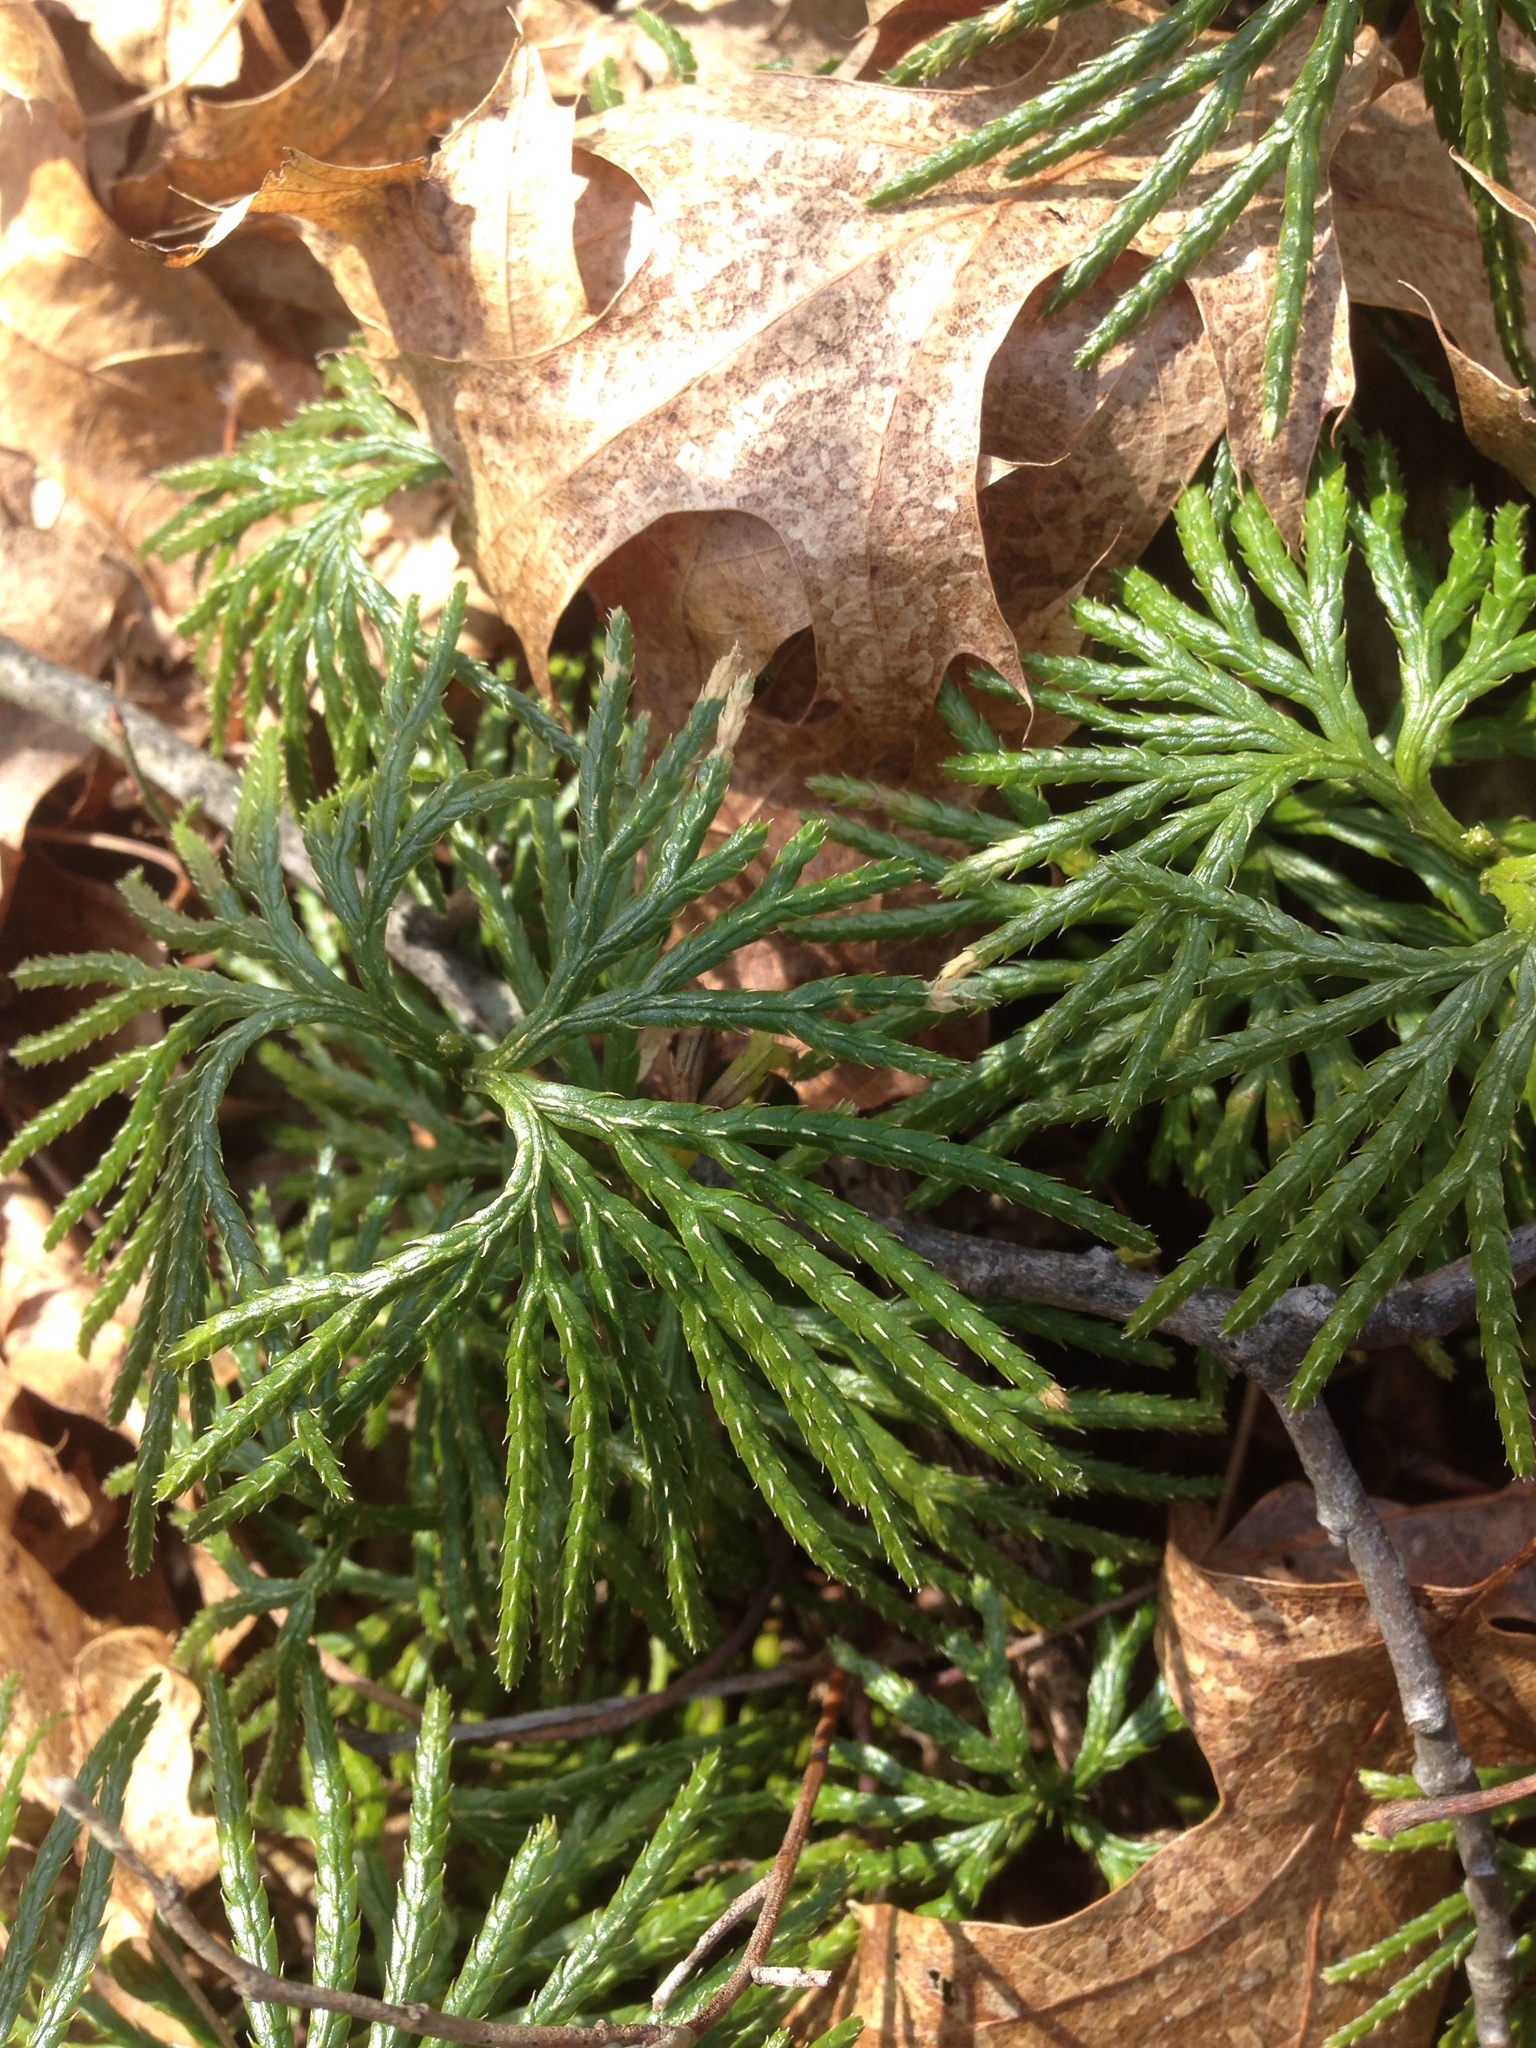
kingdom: Plantae
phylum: Tracheophyta
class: Lycopodiopsida
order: Lycopodiales
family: Lycopodiaceae
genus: Diphasiastrum
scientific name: Diphasiastrum digitatum
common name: Southern running-pine
